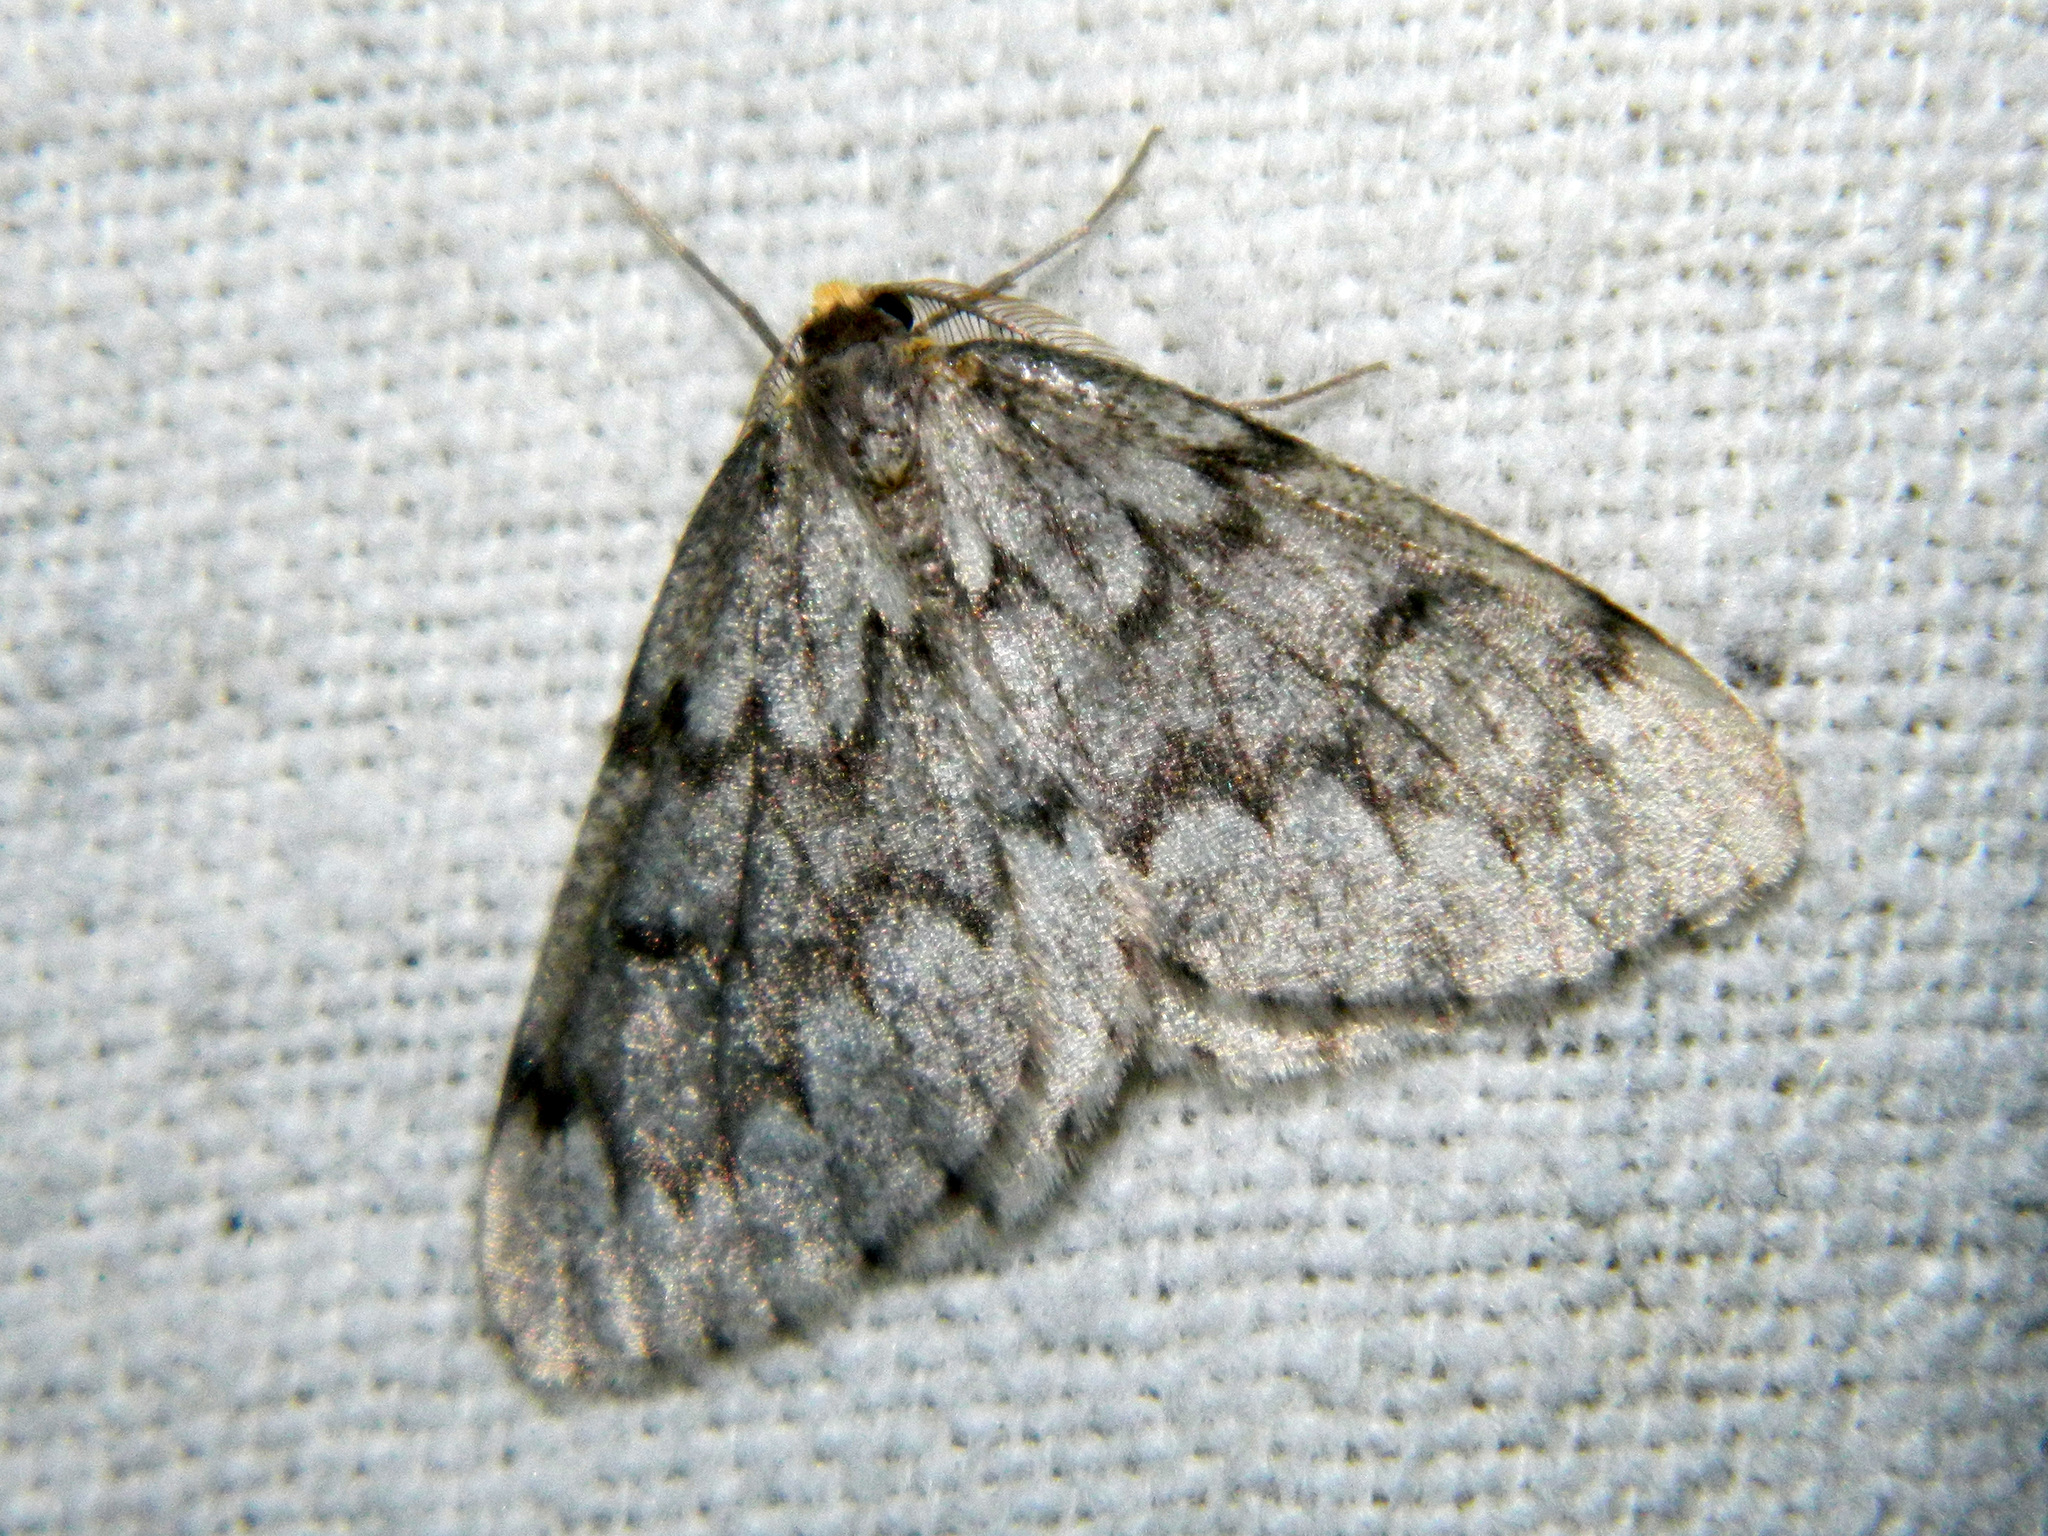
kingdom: Animalia
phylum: Arthropoda
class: Insecta
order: Lepidoptera
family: Geometridae
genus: Nepytia
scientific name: Nepytia canosaria
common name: False hemlock looper
